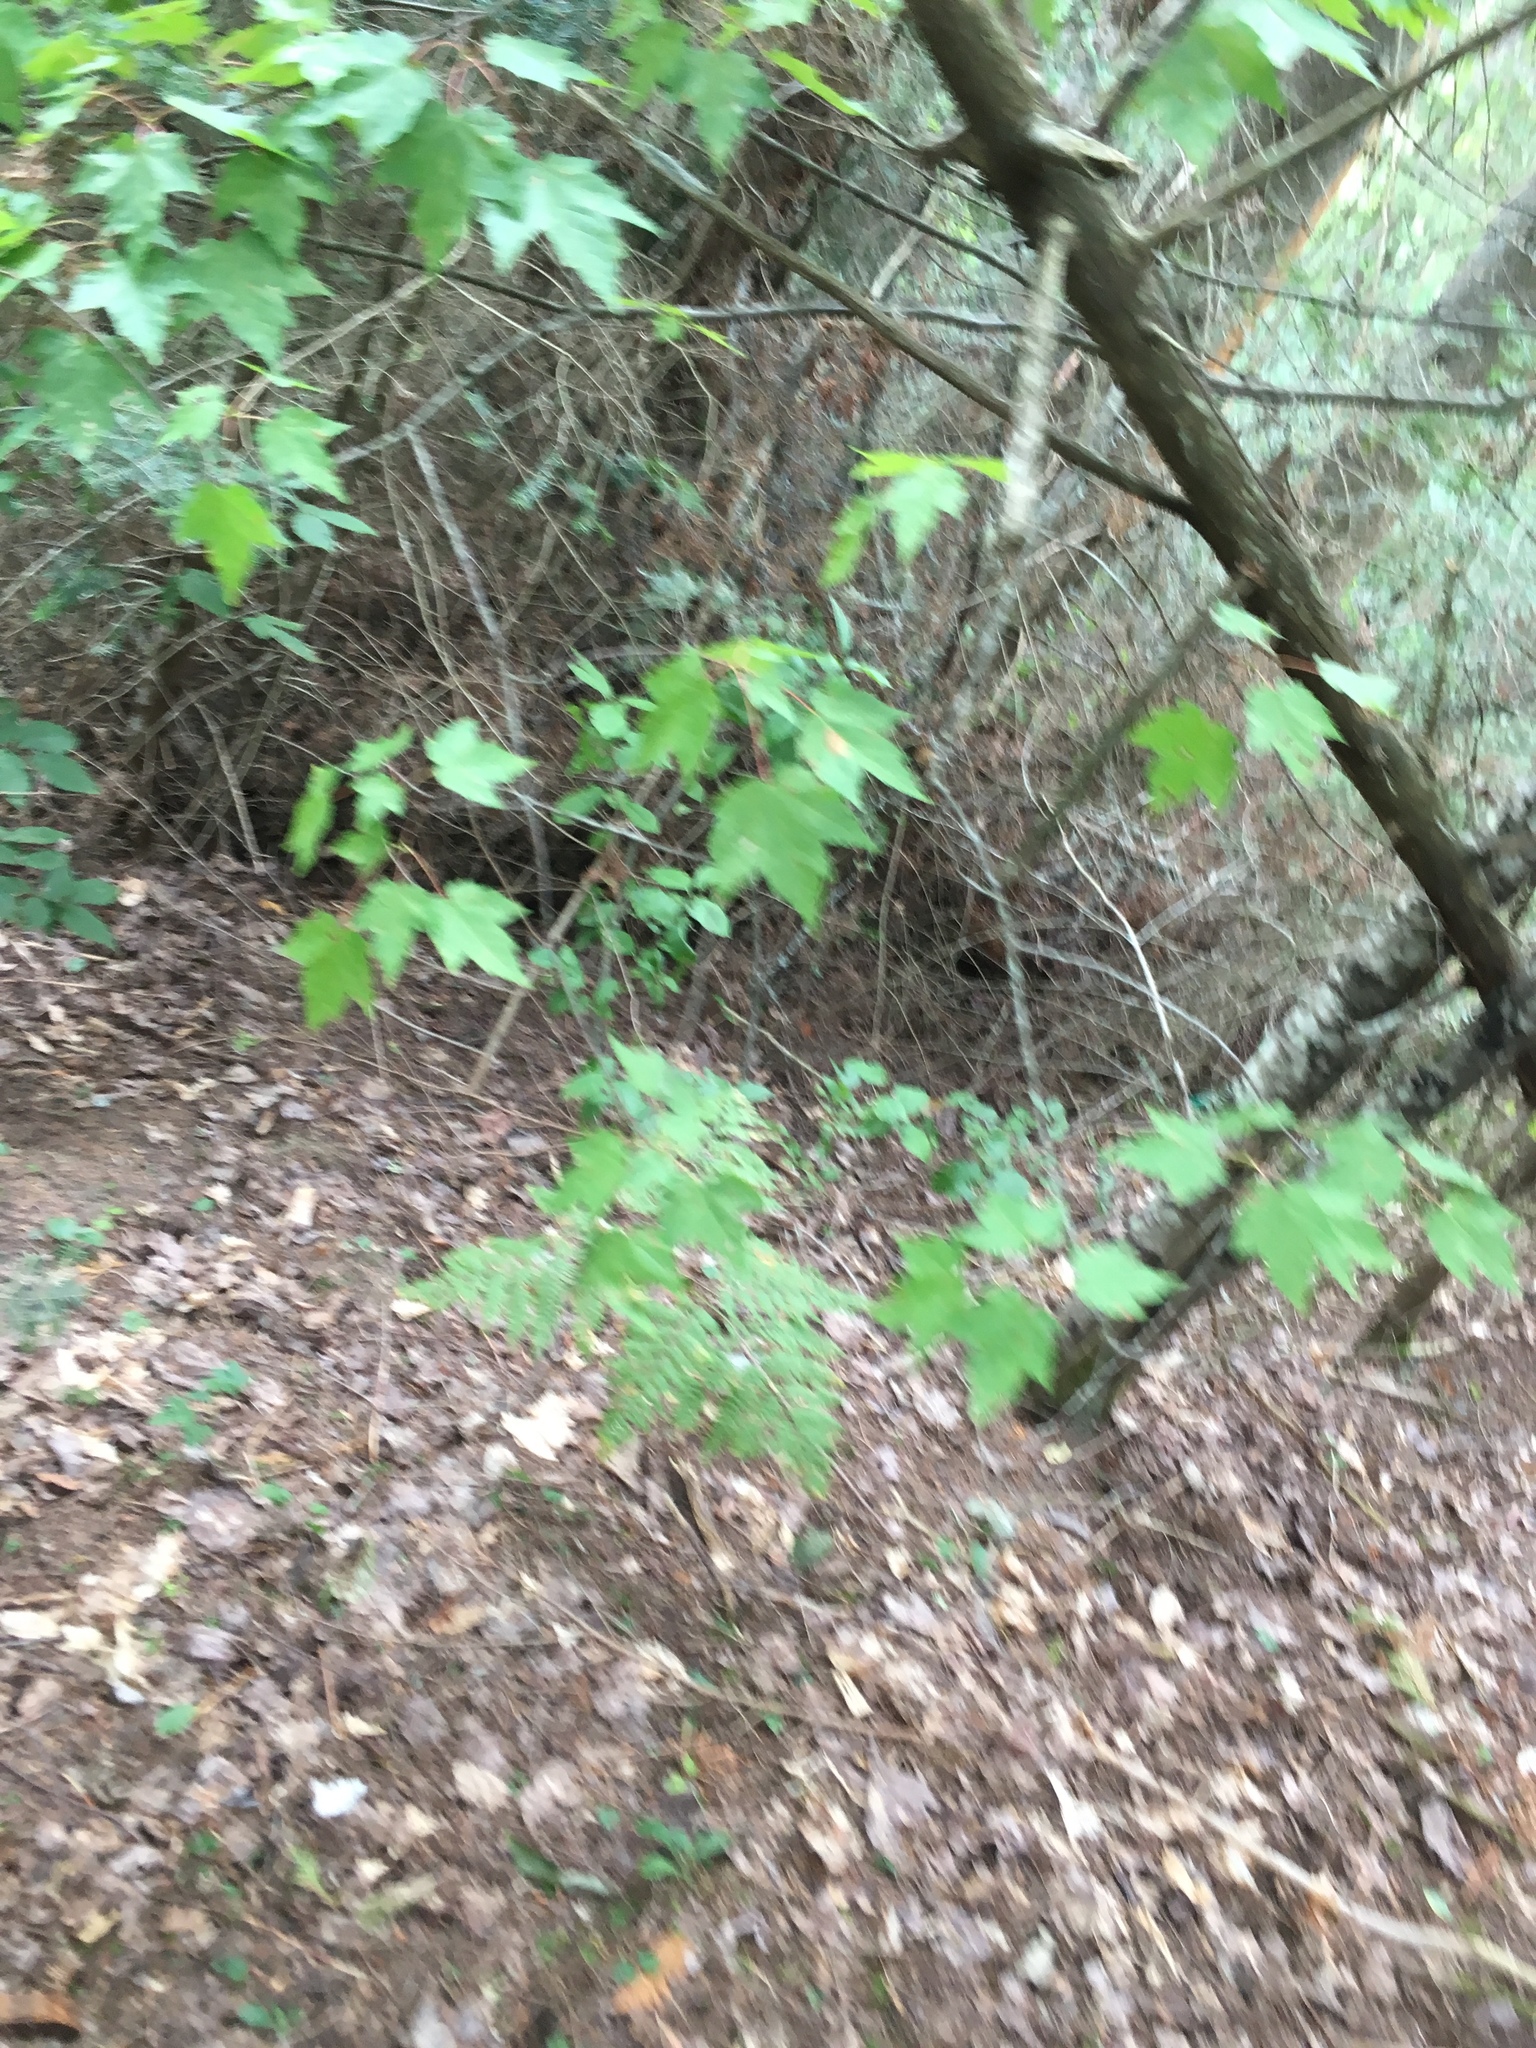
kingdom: Plantae
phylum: Tracheophyta
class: Magnoliopsida
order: Sapindales
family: Sapindaceae
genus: Acer
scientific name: Acer rubrum
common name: Red maple
